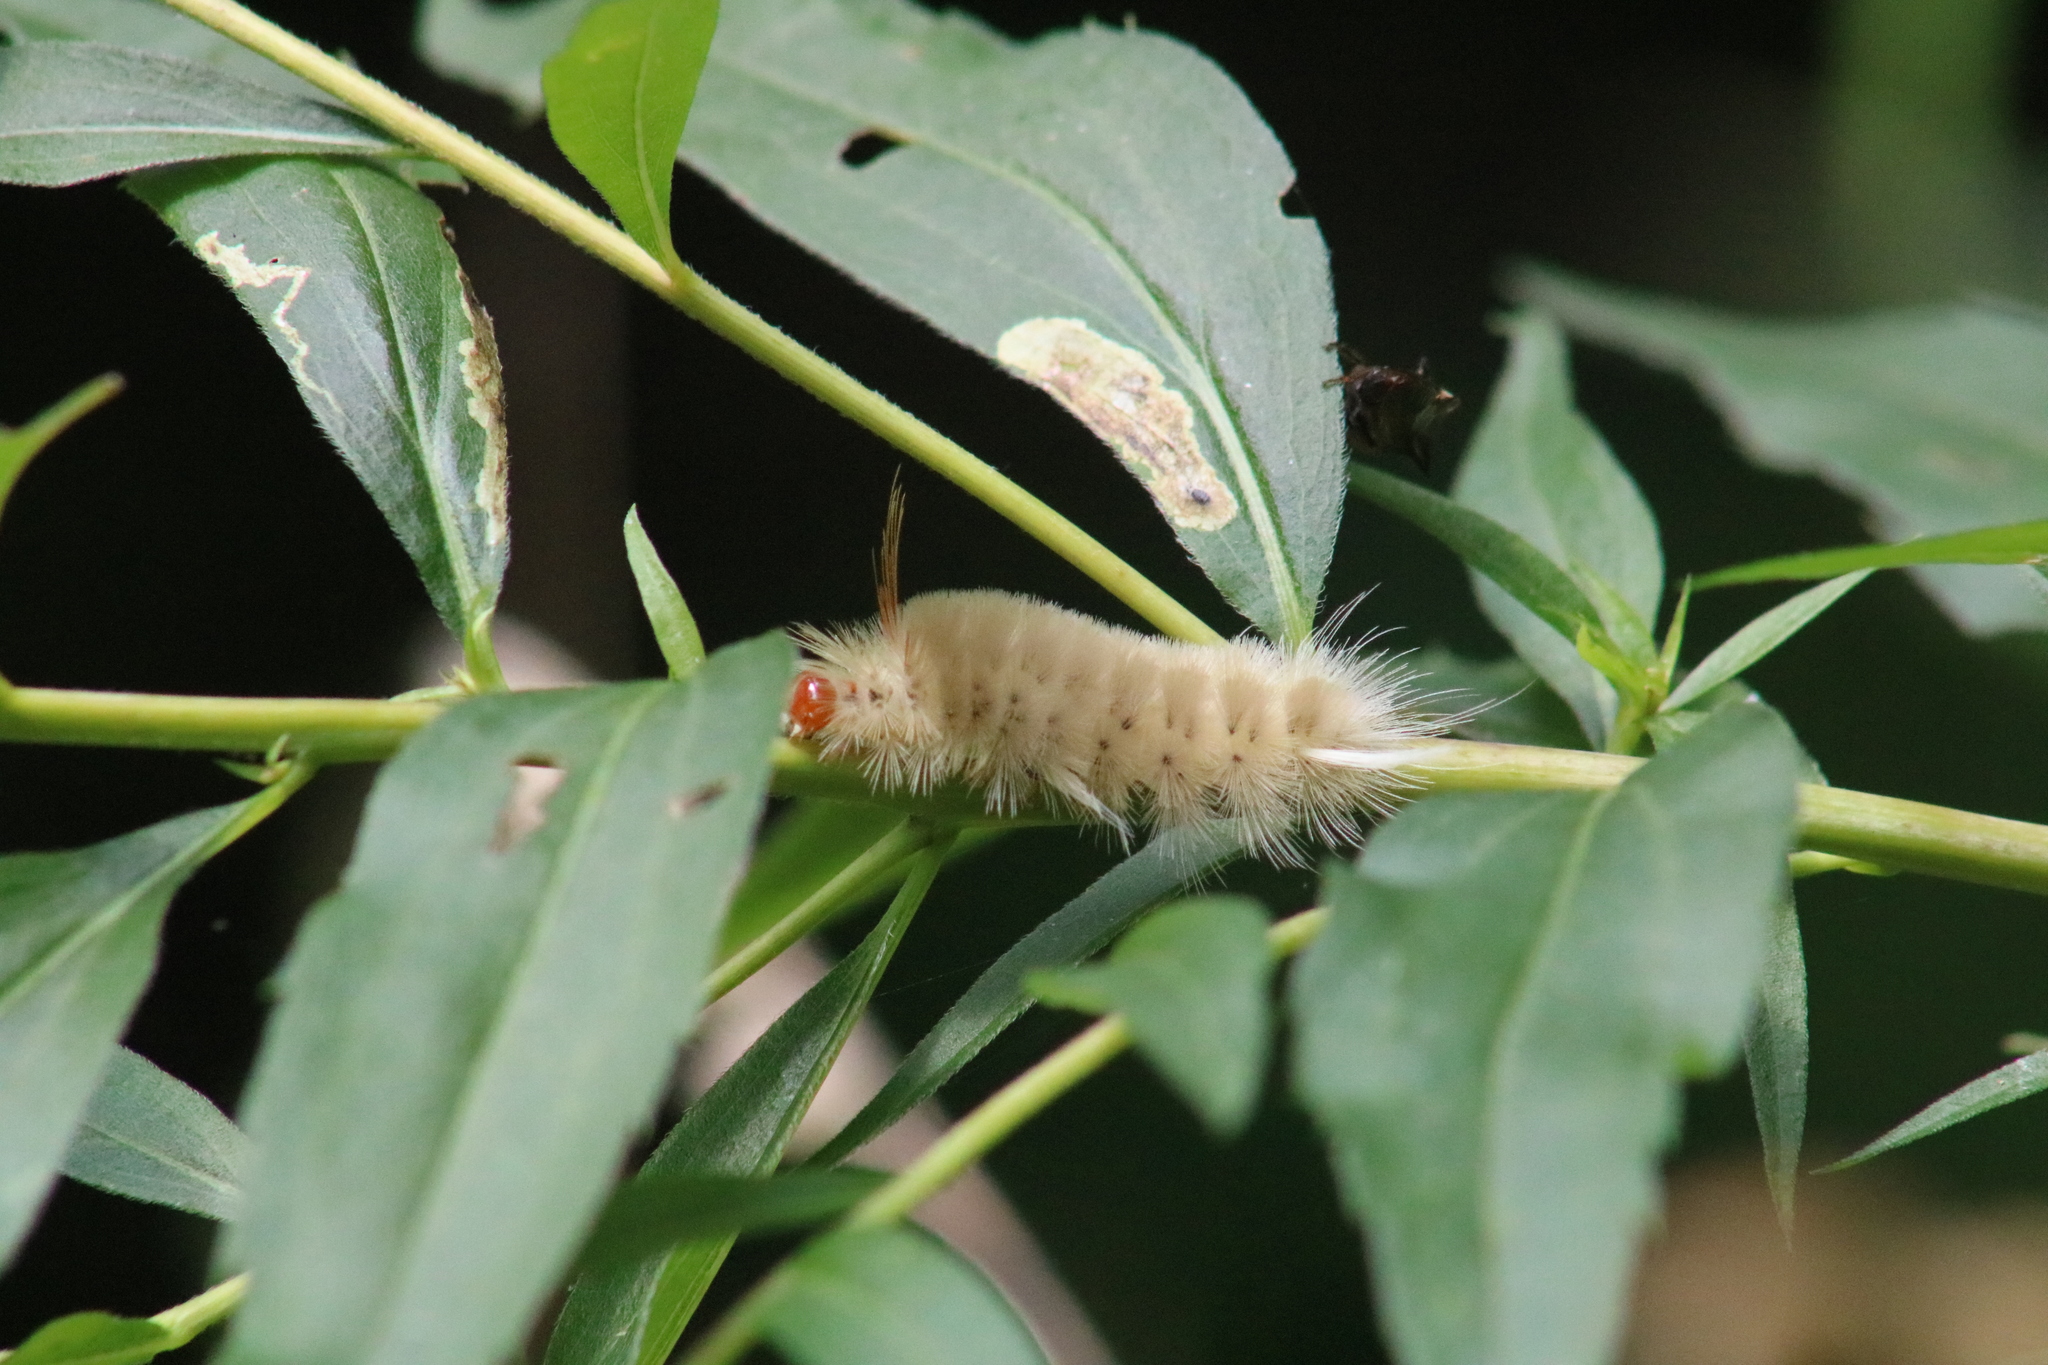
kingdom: Animalia
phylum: Arthropoda
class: Insecta
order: Lepidoptera
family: Erebidae
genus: Halysidota
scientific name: Halysidota harrisii
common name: Sycamore tussock moth
